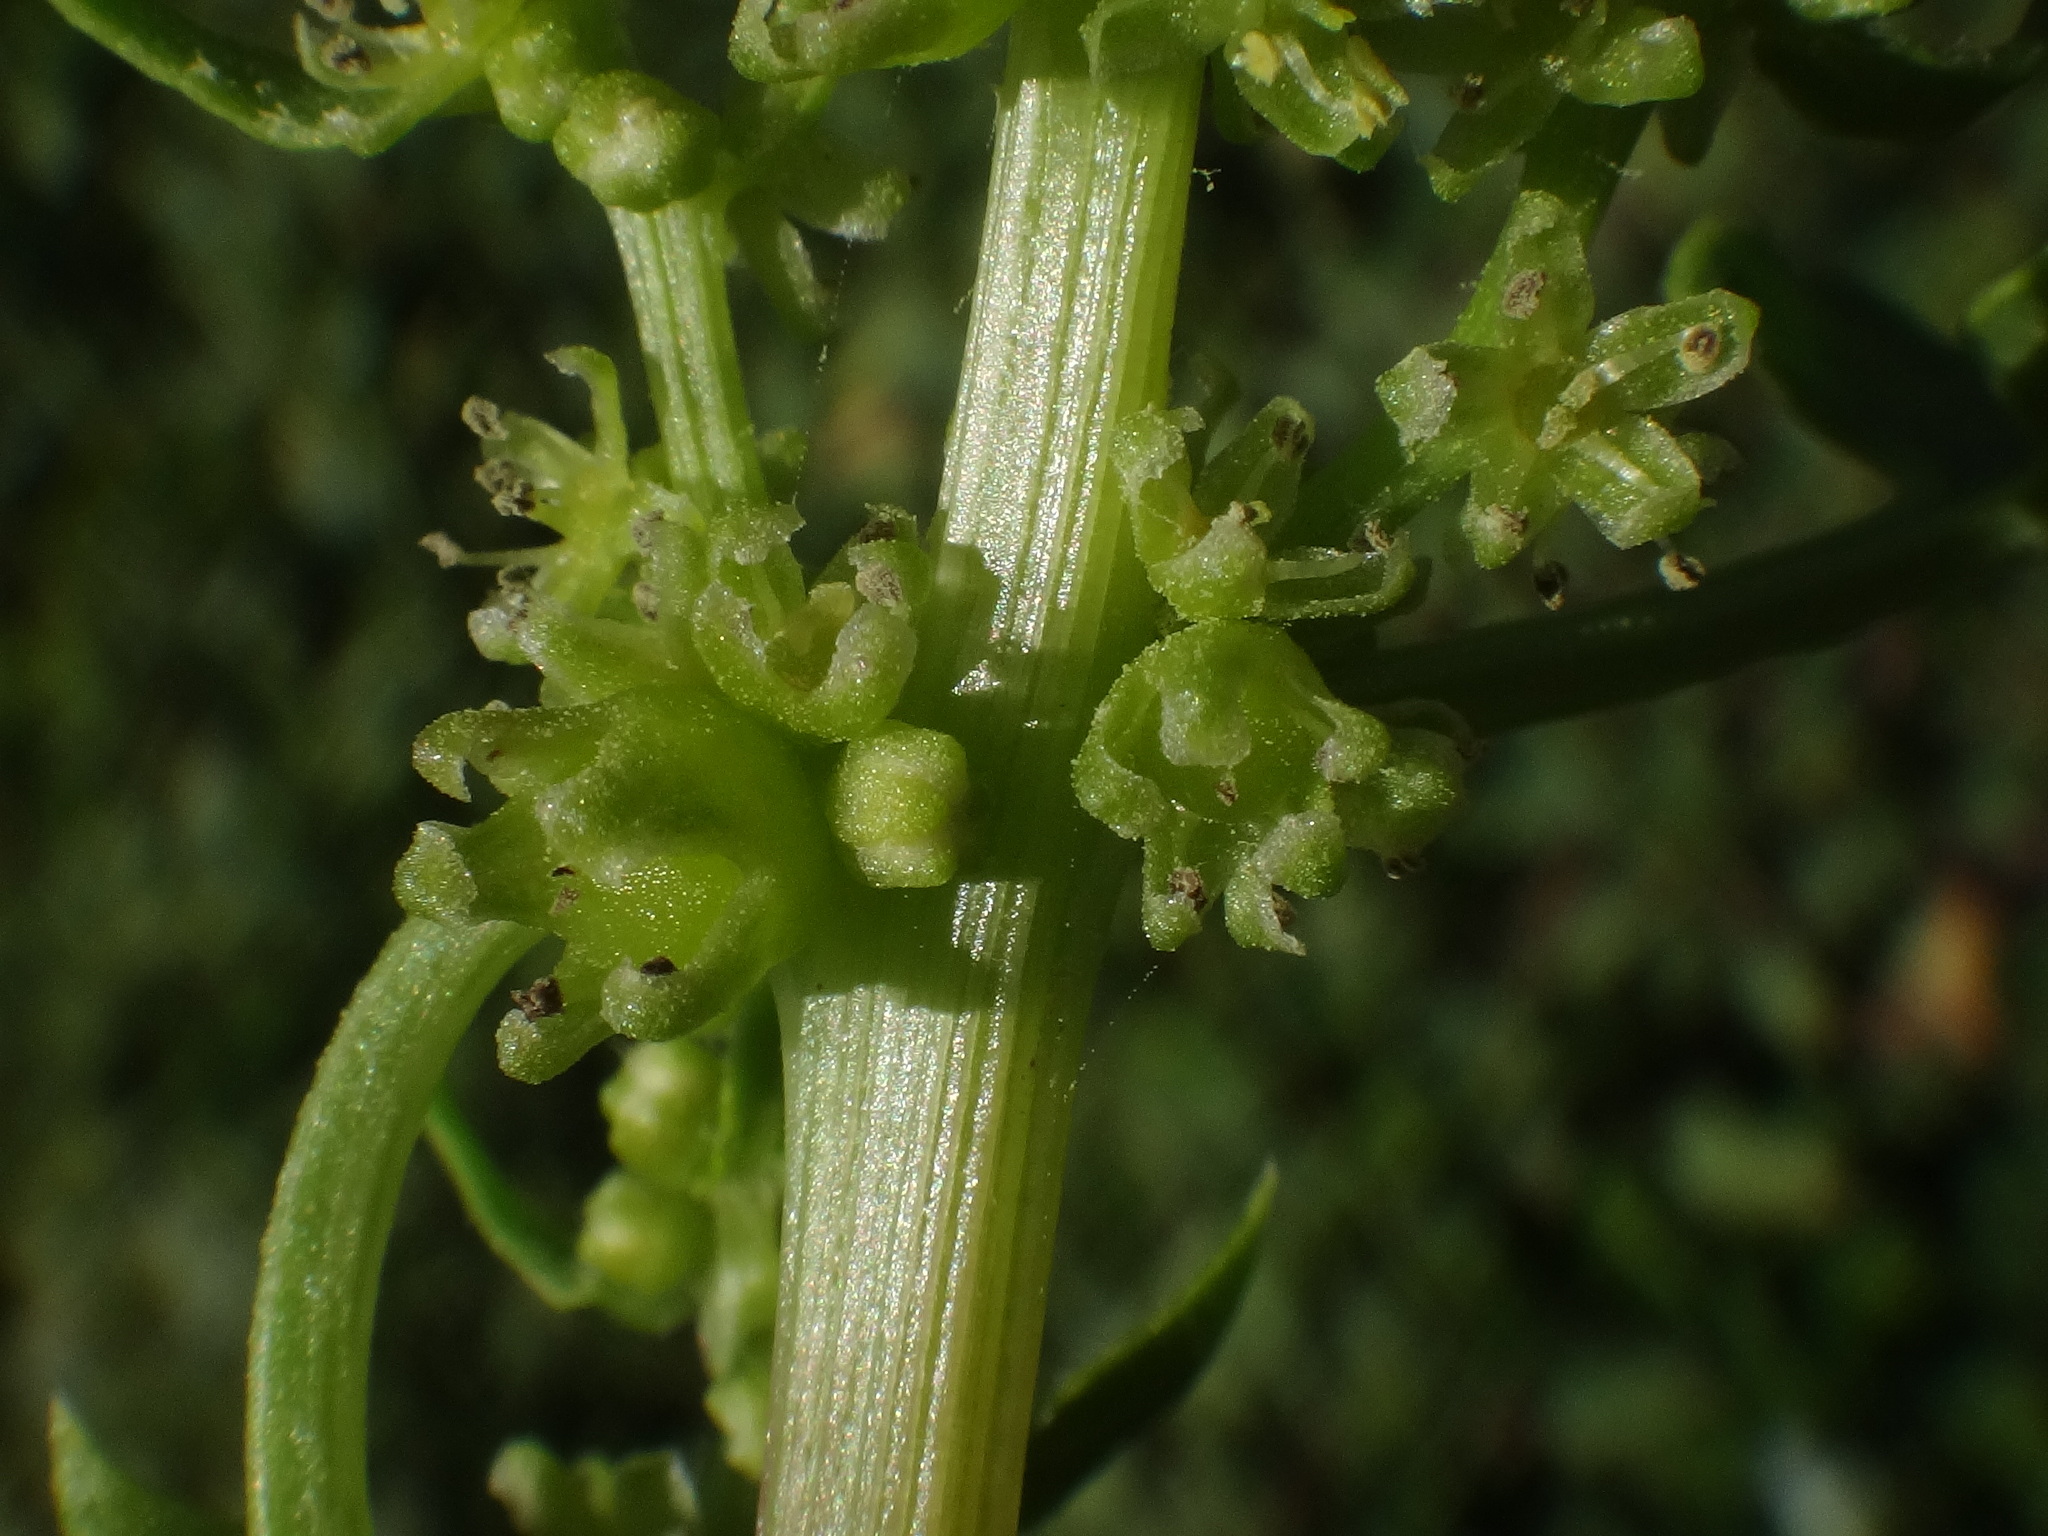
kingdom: Plantae
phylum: Tracheophyta
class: Magnoliopsida
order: Caryophyllales
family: Amaranthaceae
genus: Patellifolia
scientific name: Patellifolia procumbens
